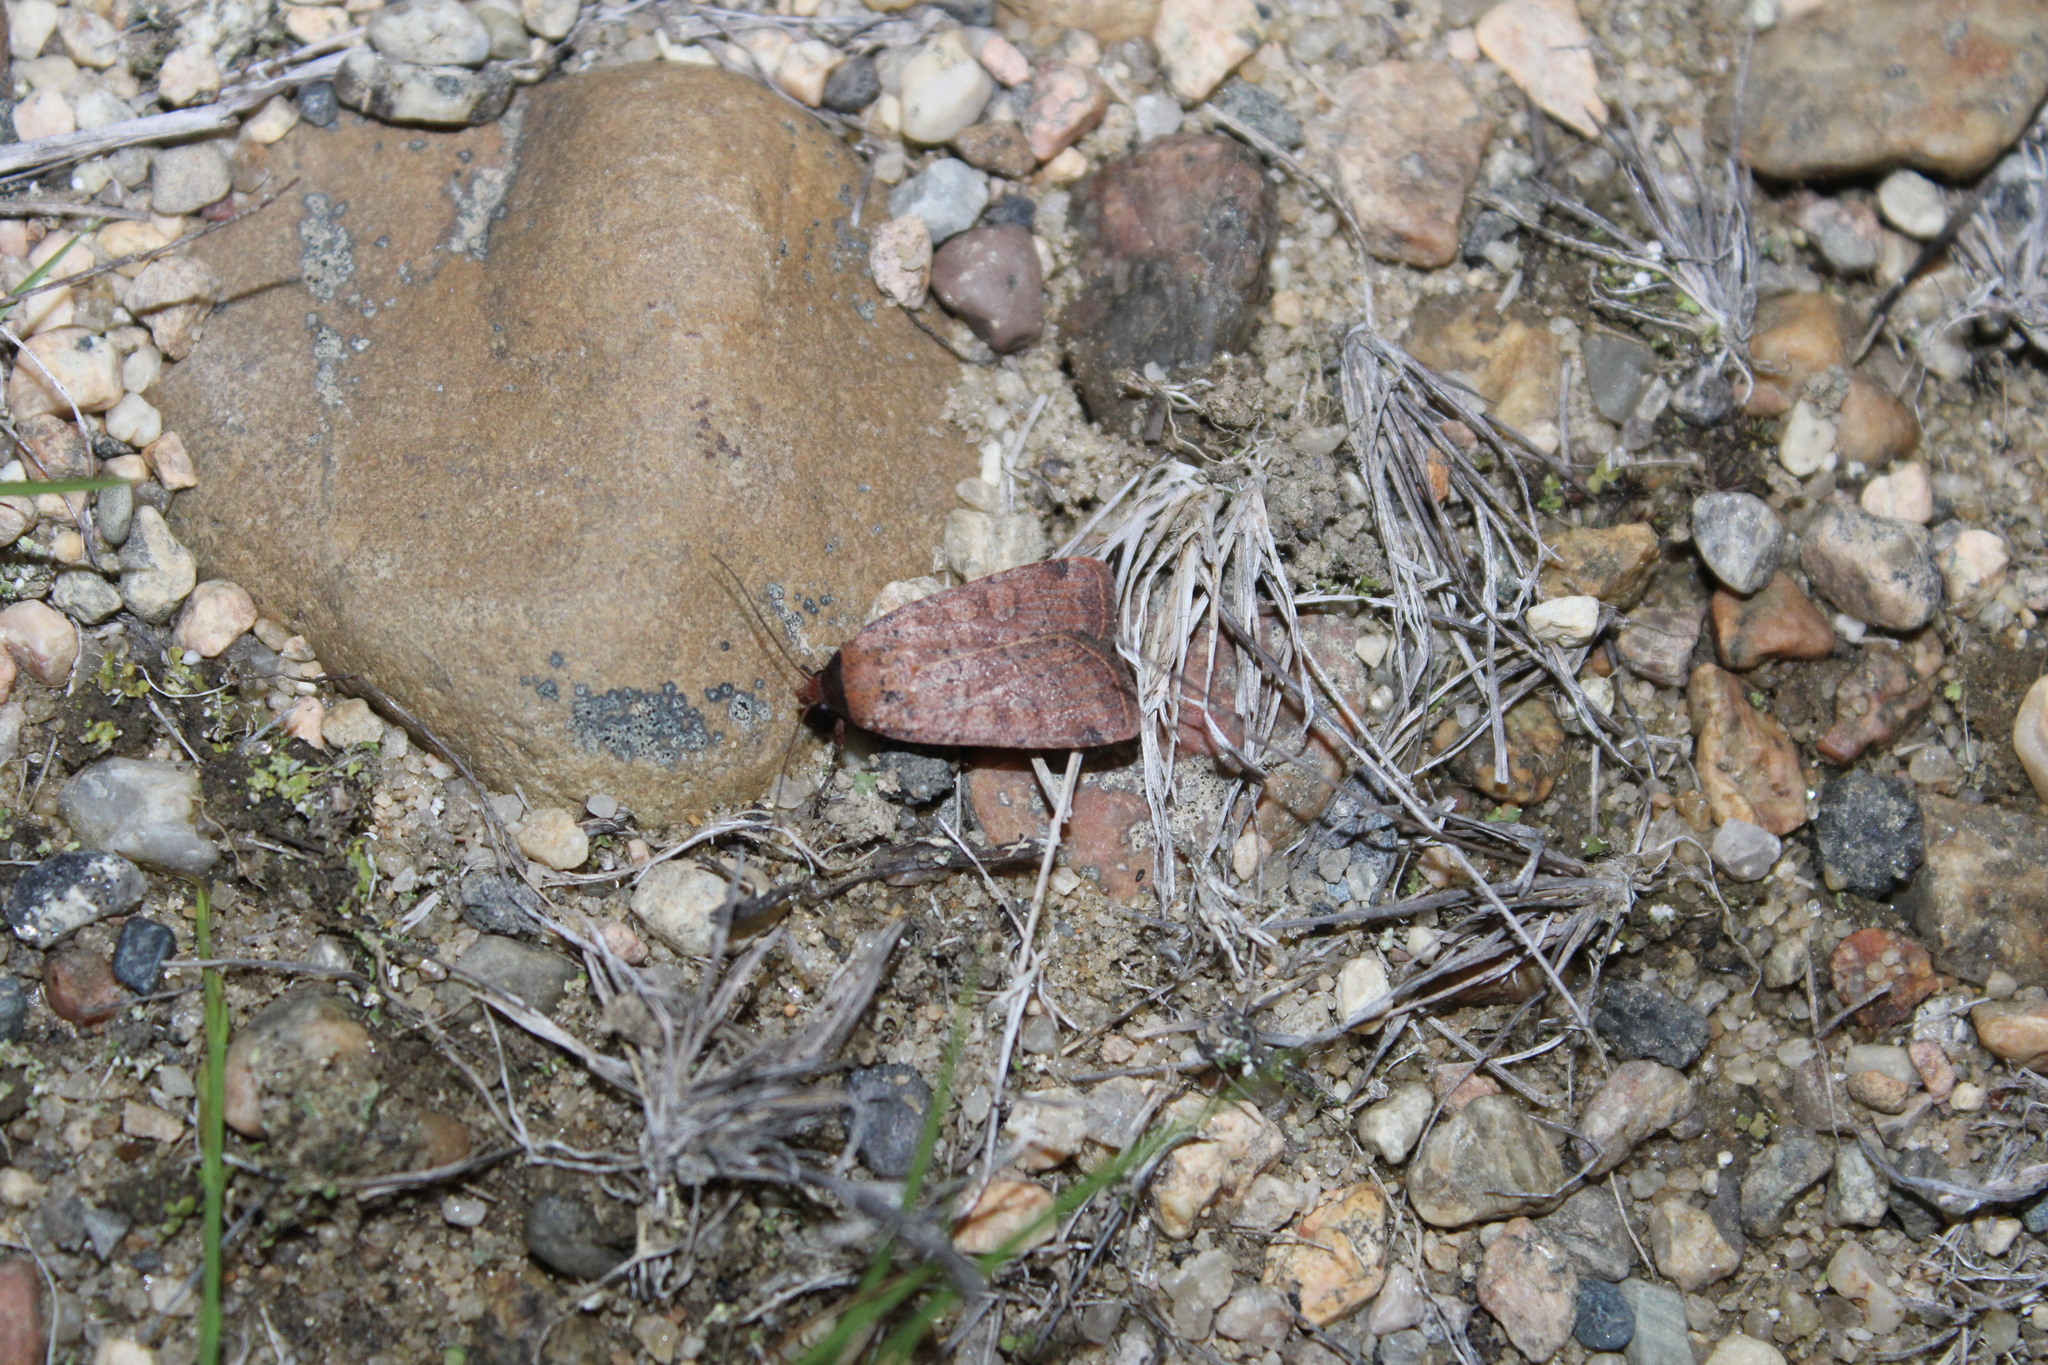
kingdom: Animalia
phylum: Arthropoda
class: Insecta
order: Lepidoptera
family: Noctuidae
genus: Protolampra
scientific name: Protolampra brunneicollis
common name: Brown-collared dart
